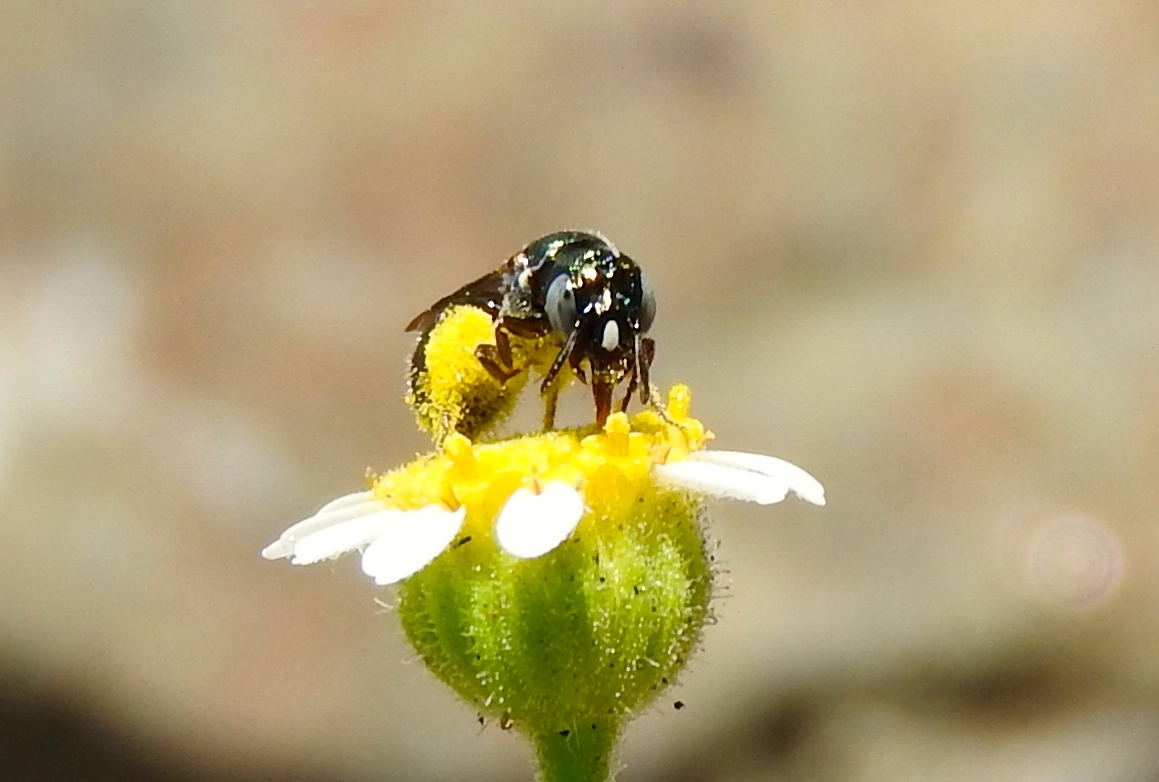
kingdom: Animalia
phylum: Arthropoda
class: Insecta
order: Hymenoptera
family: Apidae
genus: Ceratina
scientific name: Ceratina
